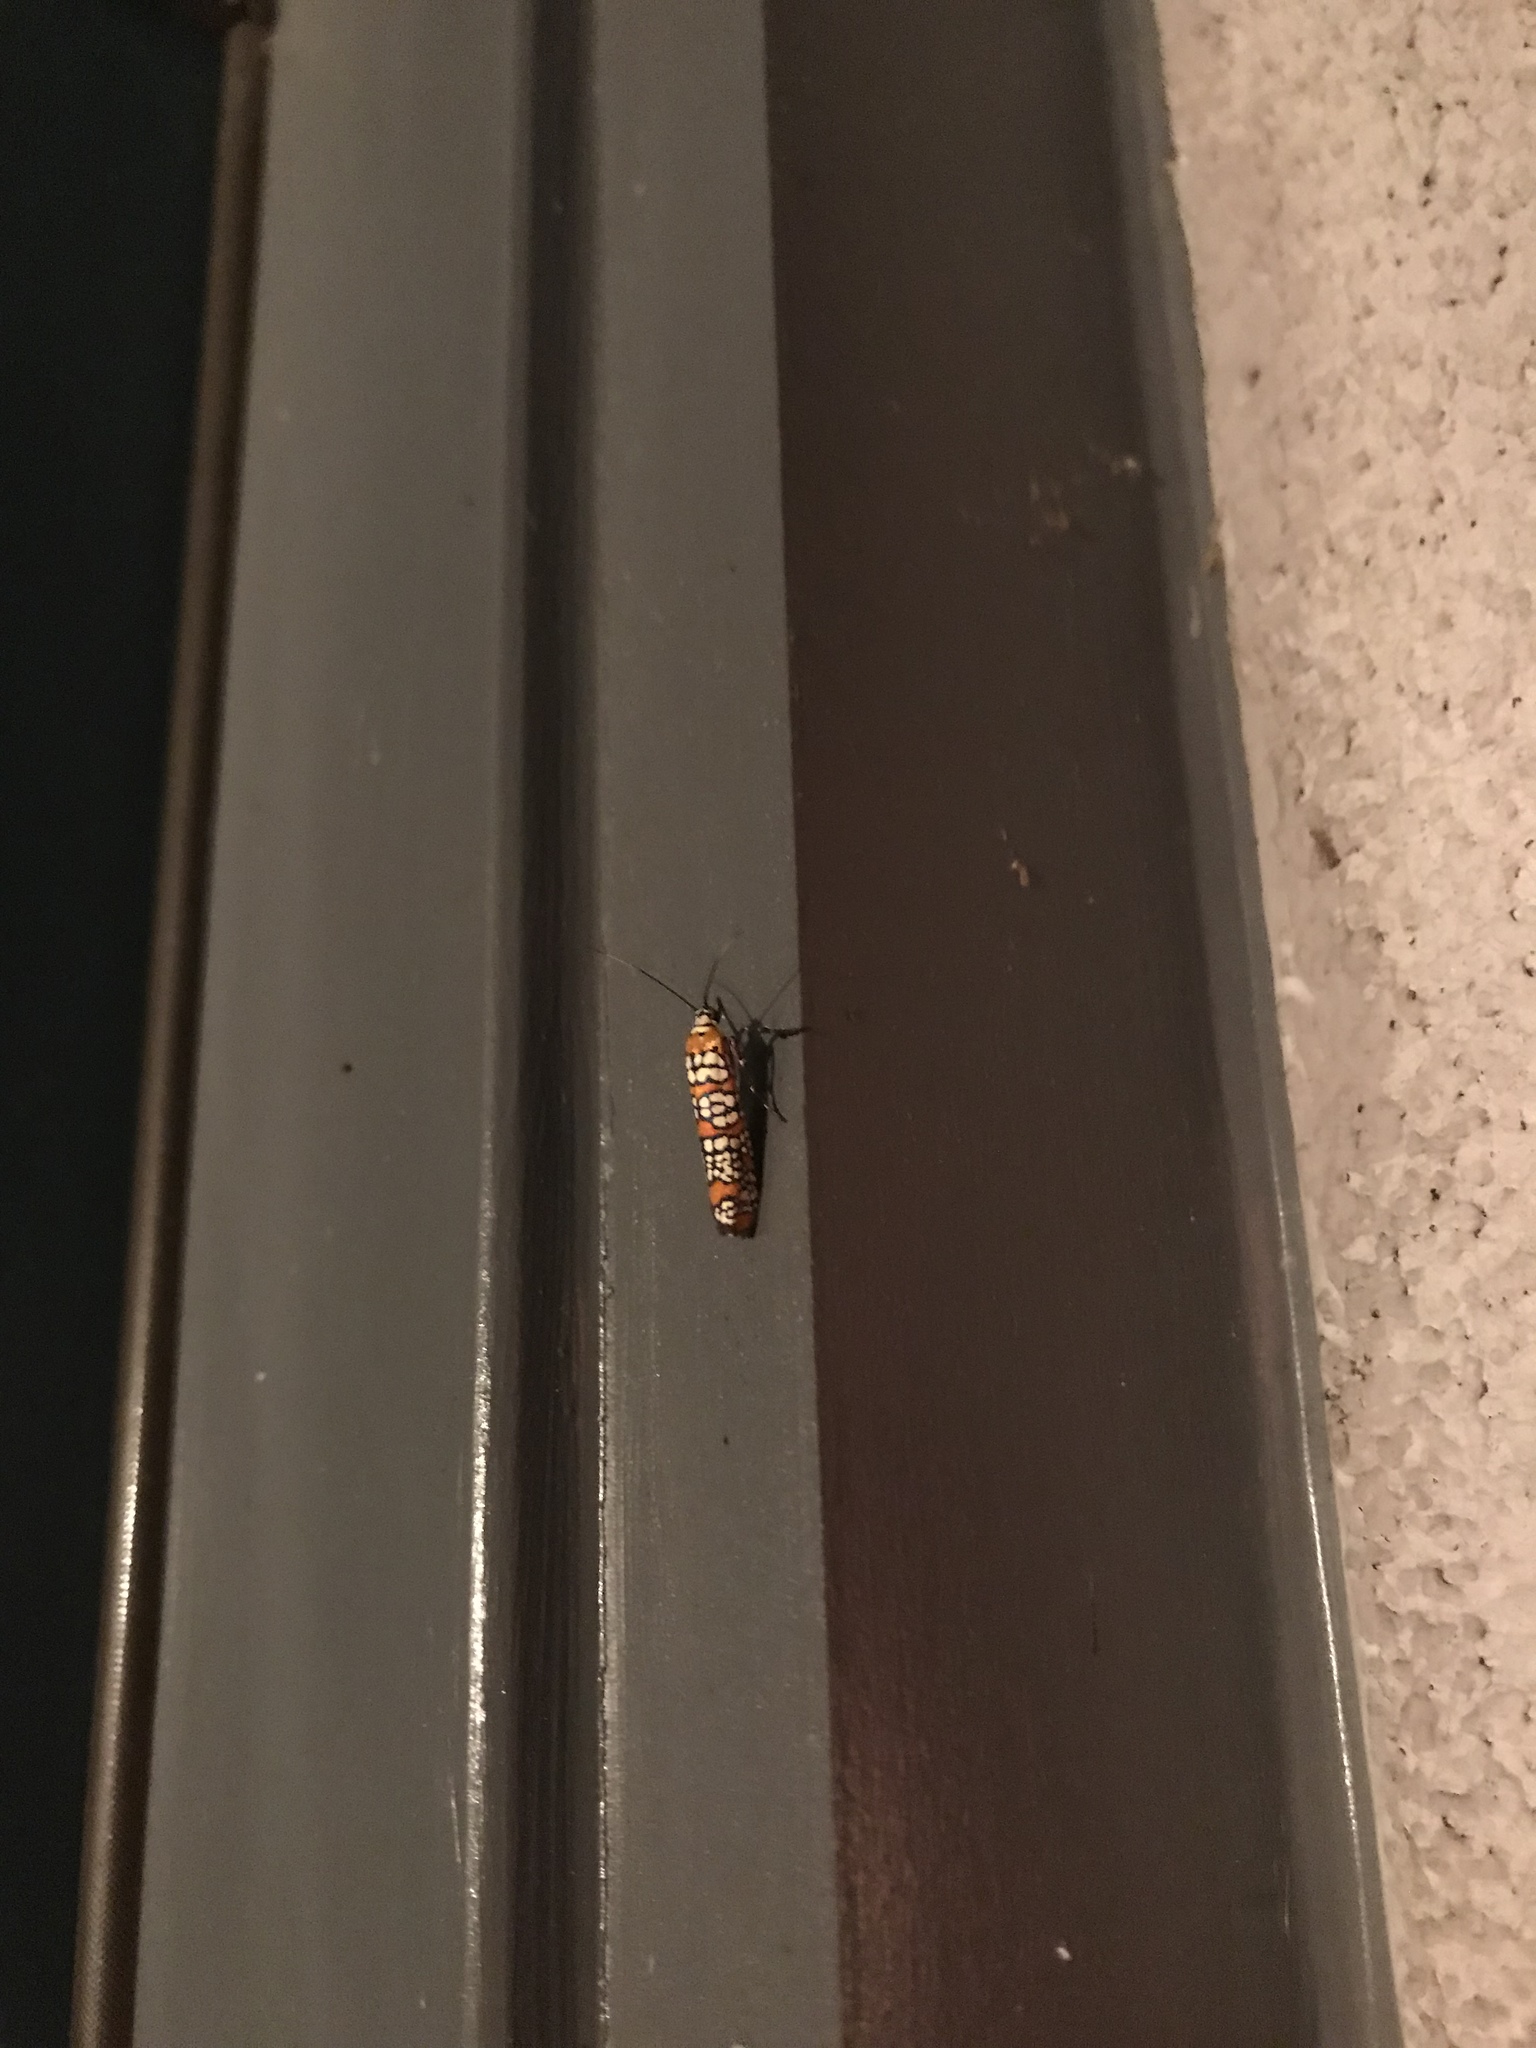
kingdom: Animalia
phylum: Arthropoda
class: Insecta
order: Lepidoptera
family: Attevidae
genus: Atteva
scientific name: Atteva punctella
